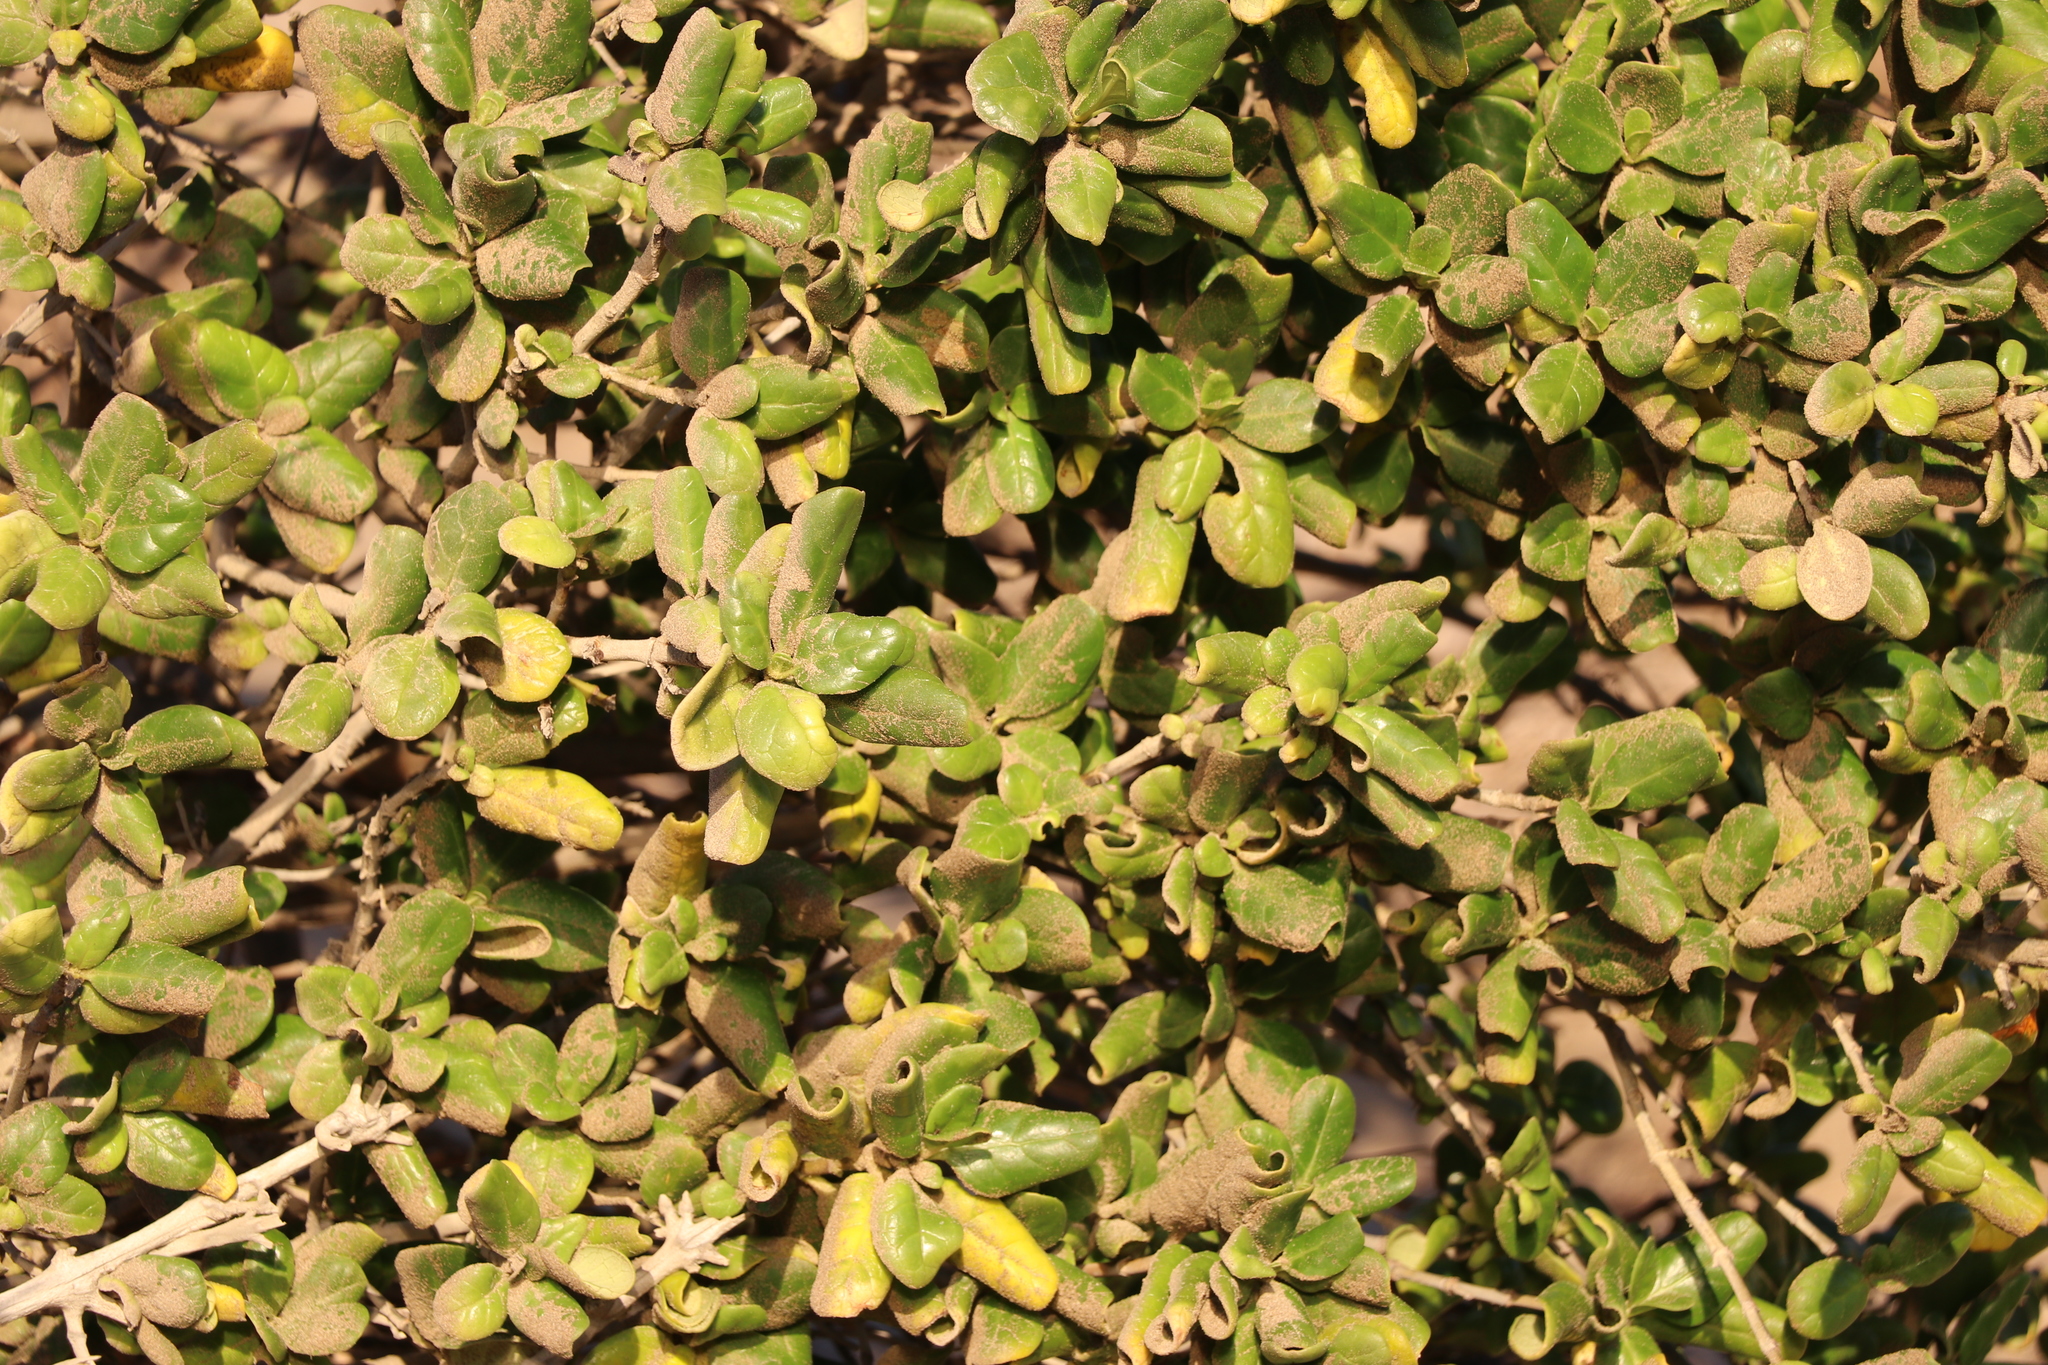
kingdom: Plantae
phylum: Tracheophyta
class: Magnoliopsida
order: Gentianales
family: Rubiaceae
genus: Coprosma
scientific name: Coprosma repens
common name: Tree bedstraw
